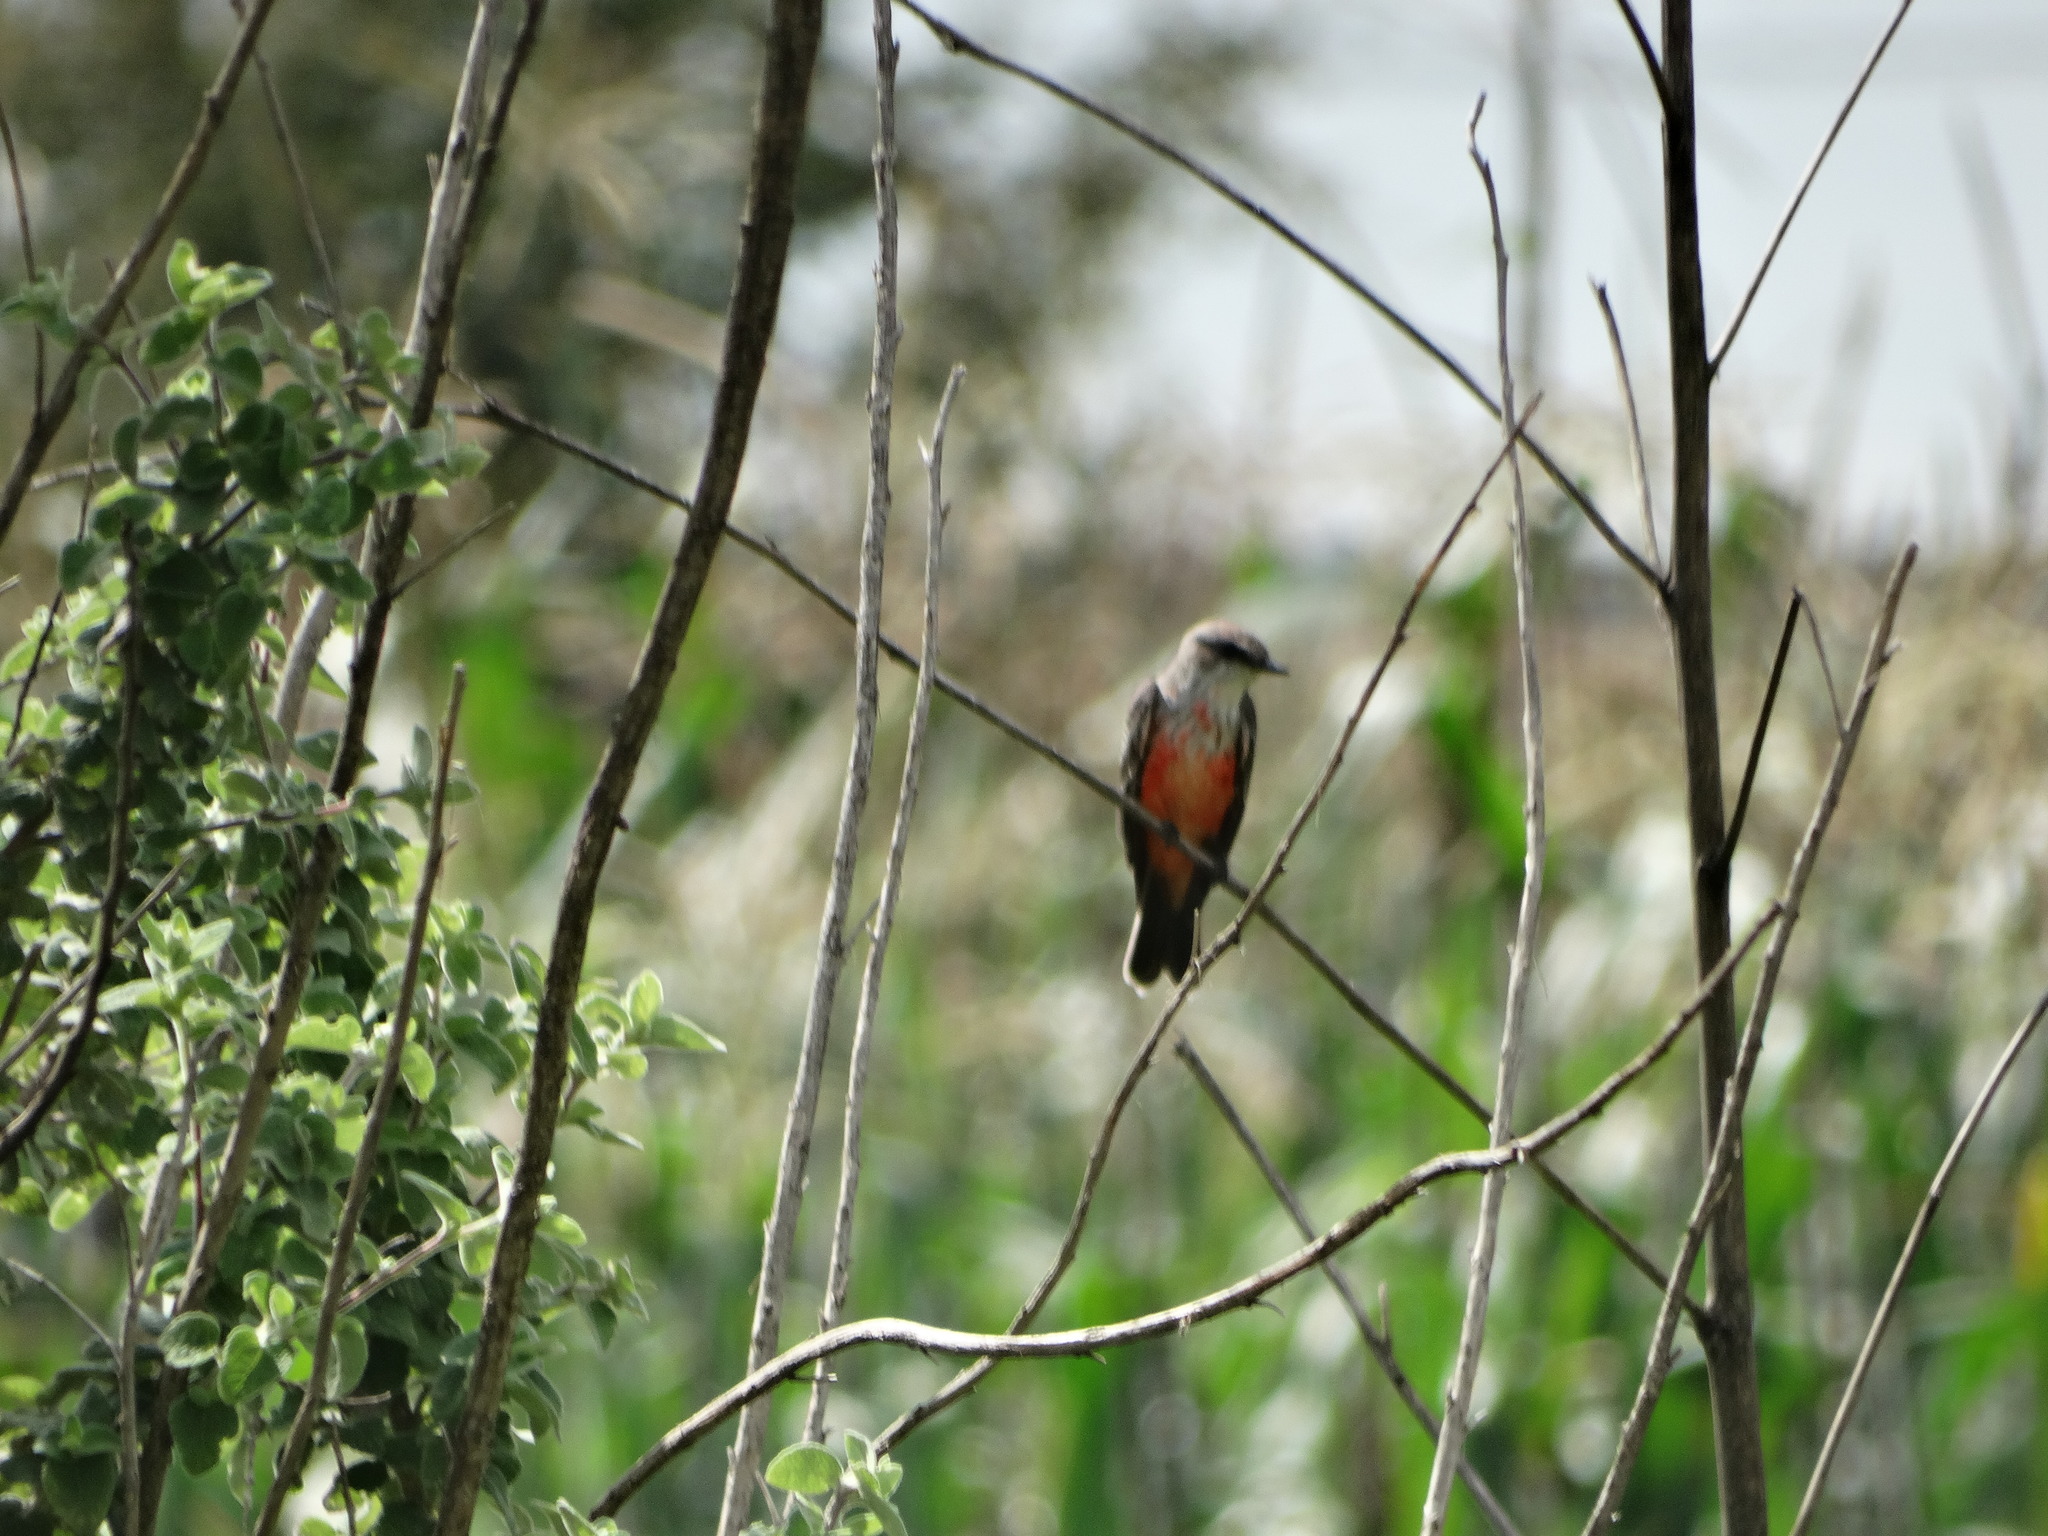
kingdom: Animalia
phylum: Chordata
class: Aves
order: Passeriformes
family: Tyrannidae
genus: Pyrocephalus
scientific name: Pyrocephalus rubinus
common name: Vermilion flycatcher
